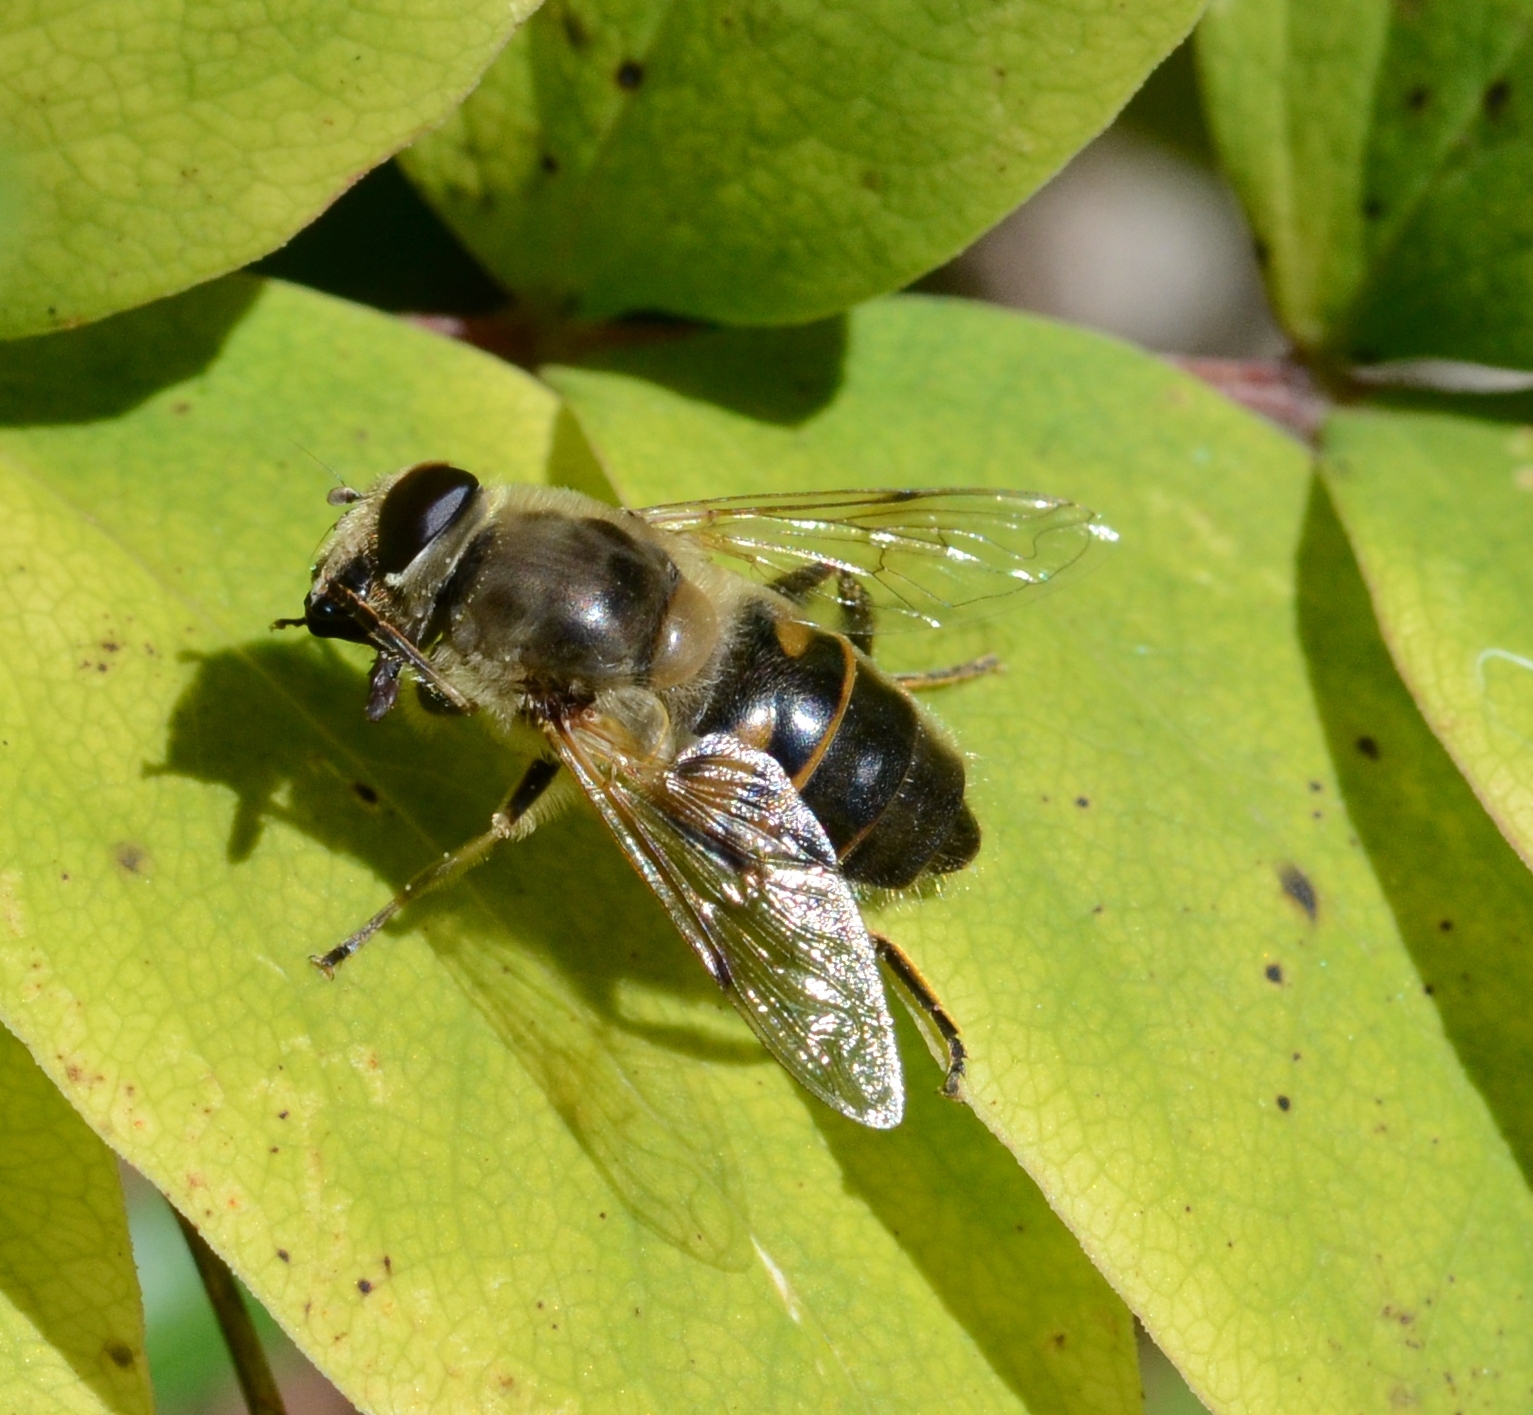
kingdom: Animalia
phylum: Arthropoda
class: Insecta
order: Diptera
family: Syrphidae
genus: Eristalis
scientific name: Eristalis tenax
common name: Drone fly
